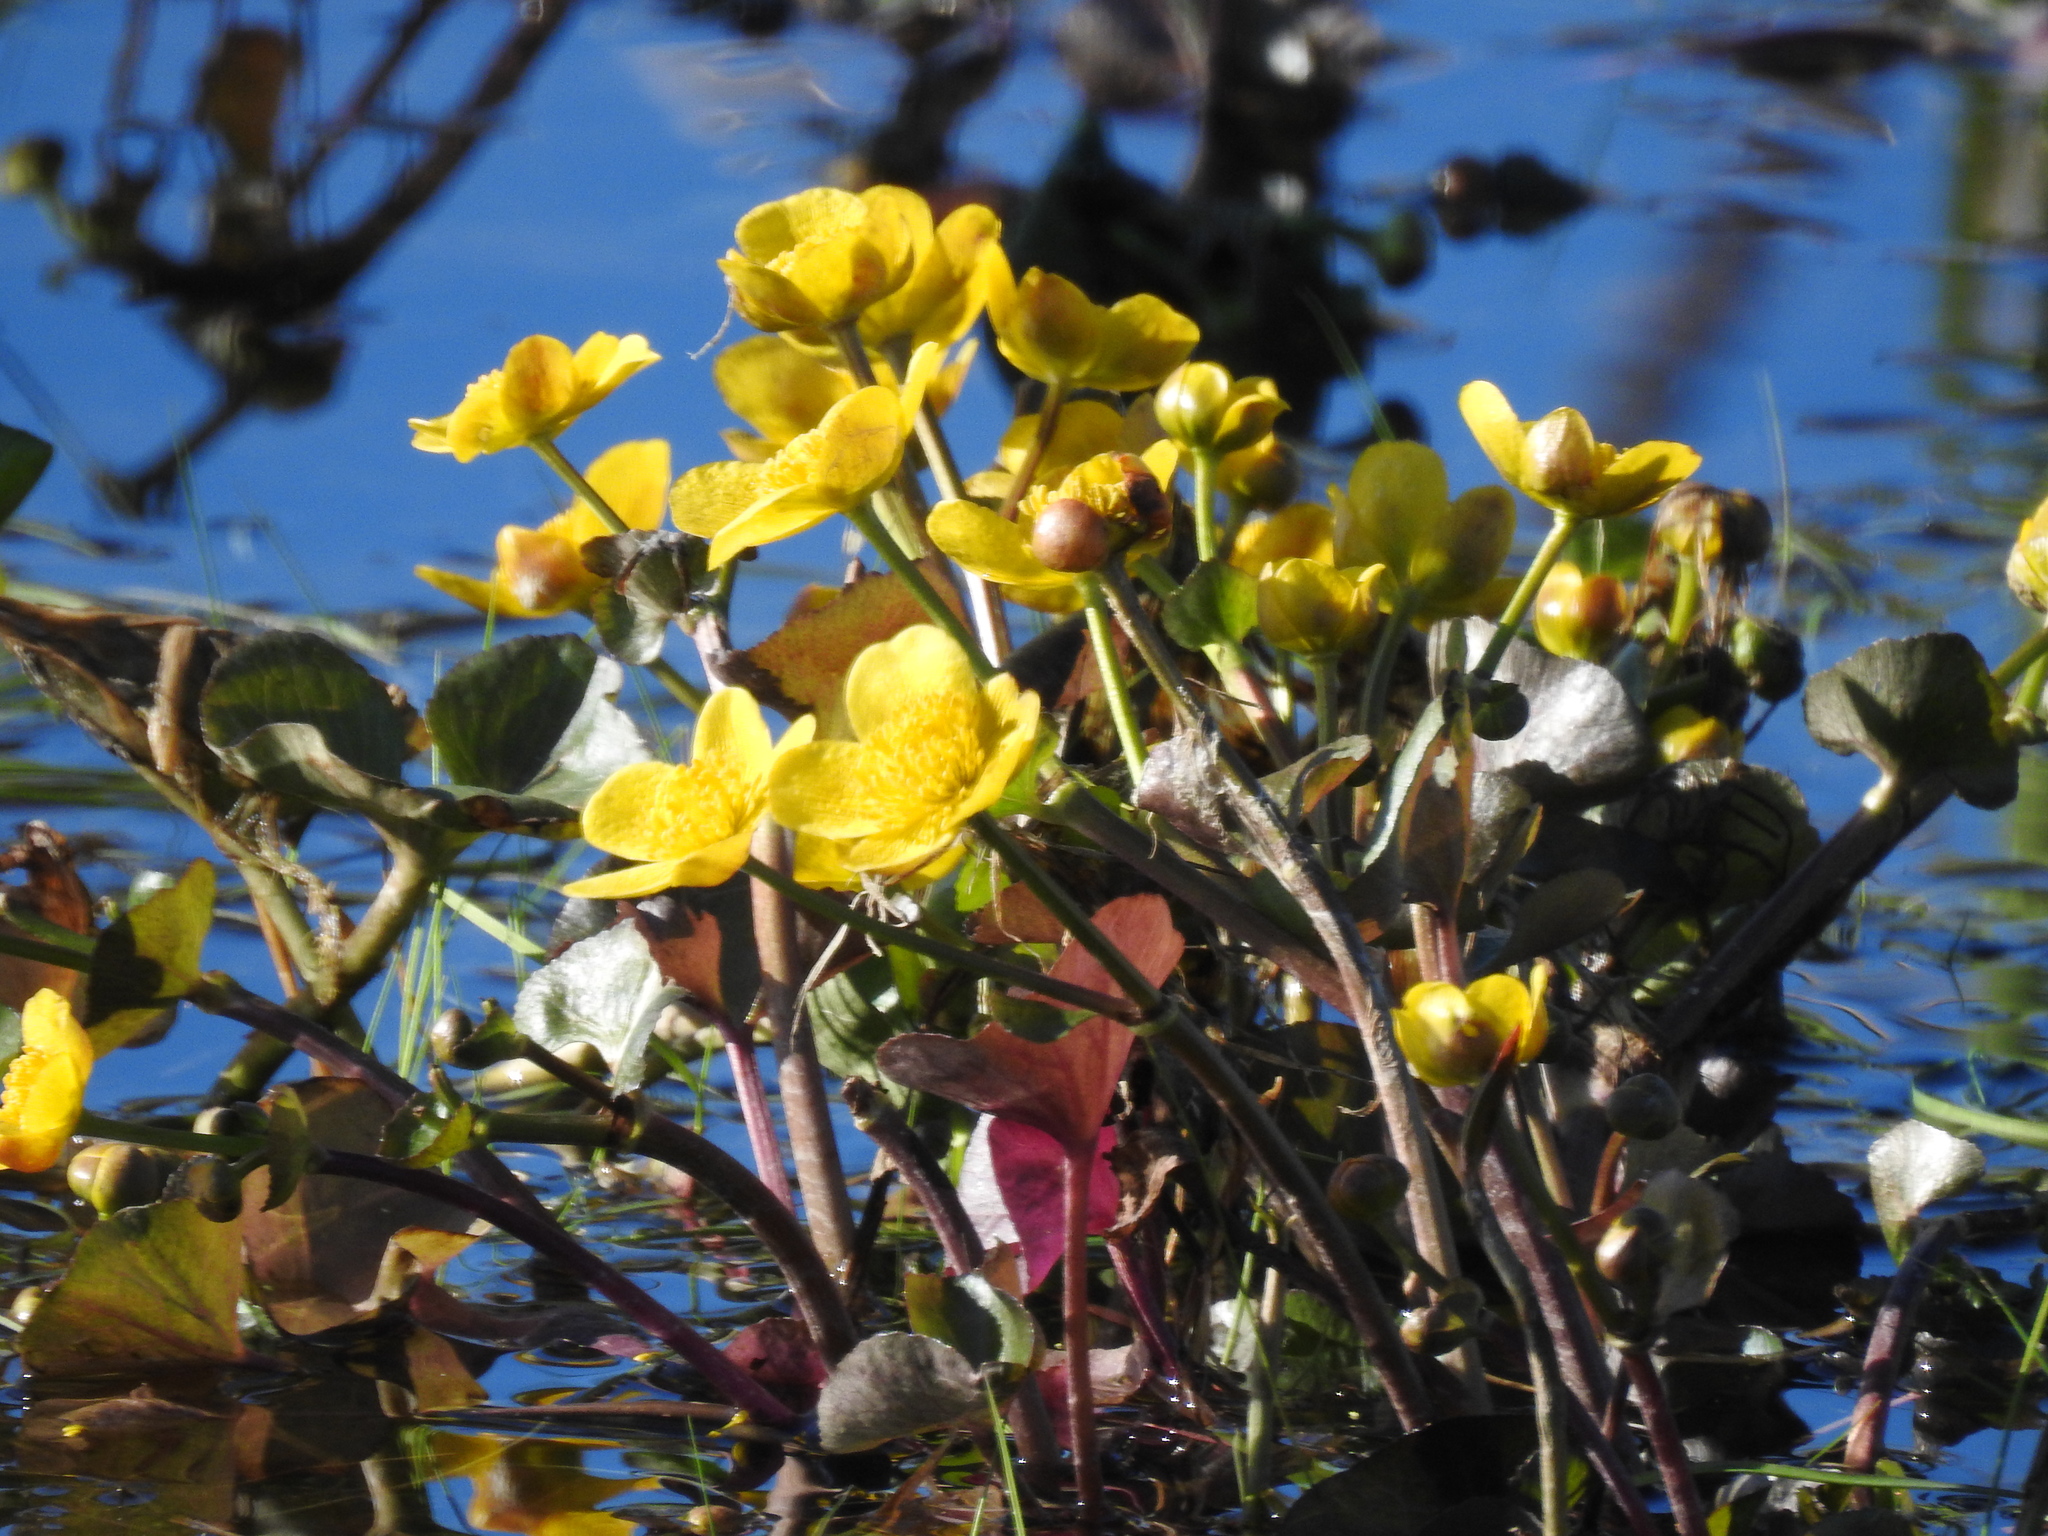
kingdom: Plantae
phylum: Tracheophyta
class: Magnoliopsida
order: Ranunculales
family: Ranunculaceae
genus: Caltha
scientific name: Caltha palustris
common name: Marsh marigold
